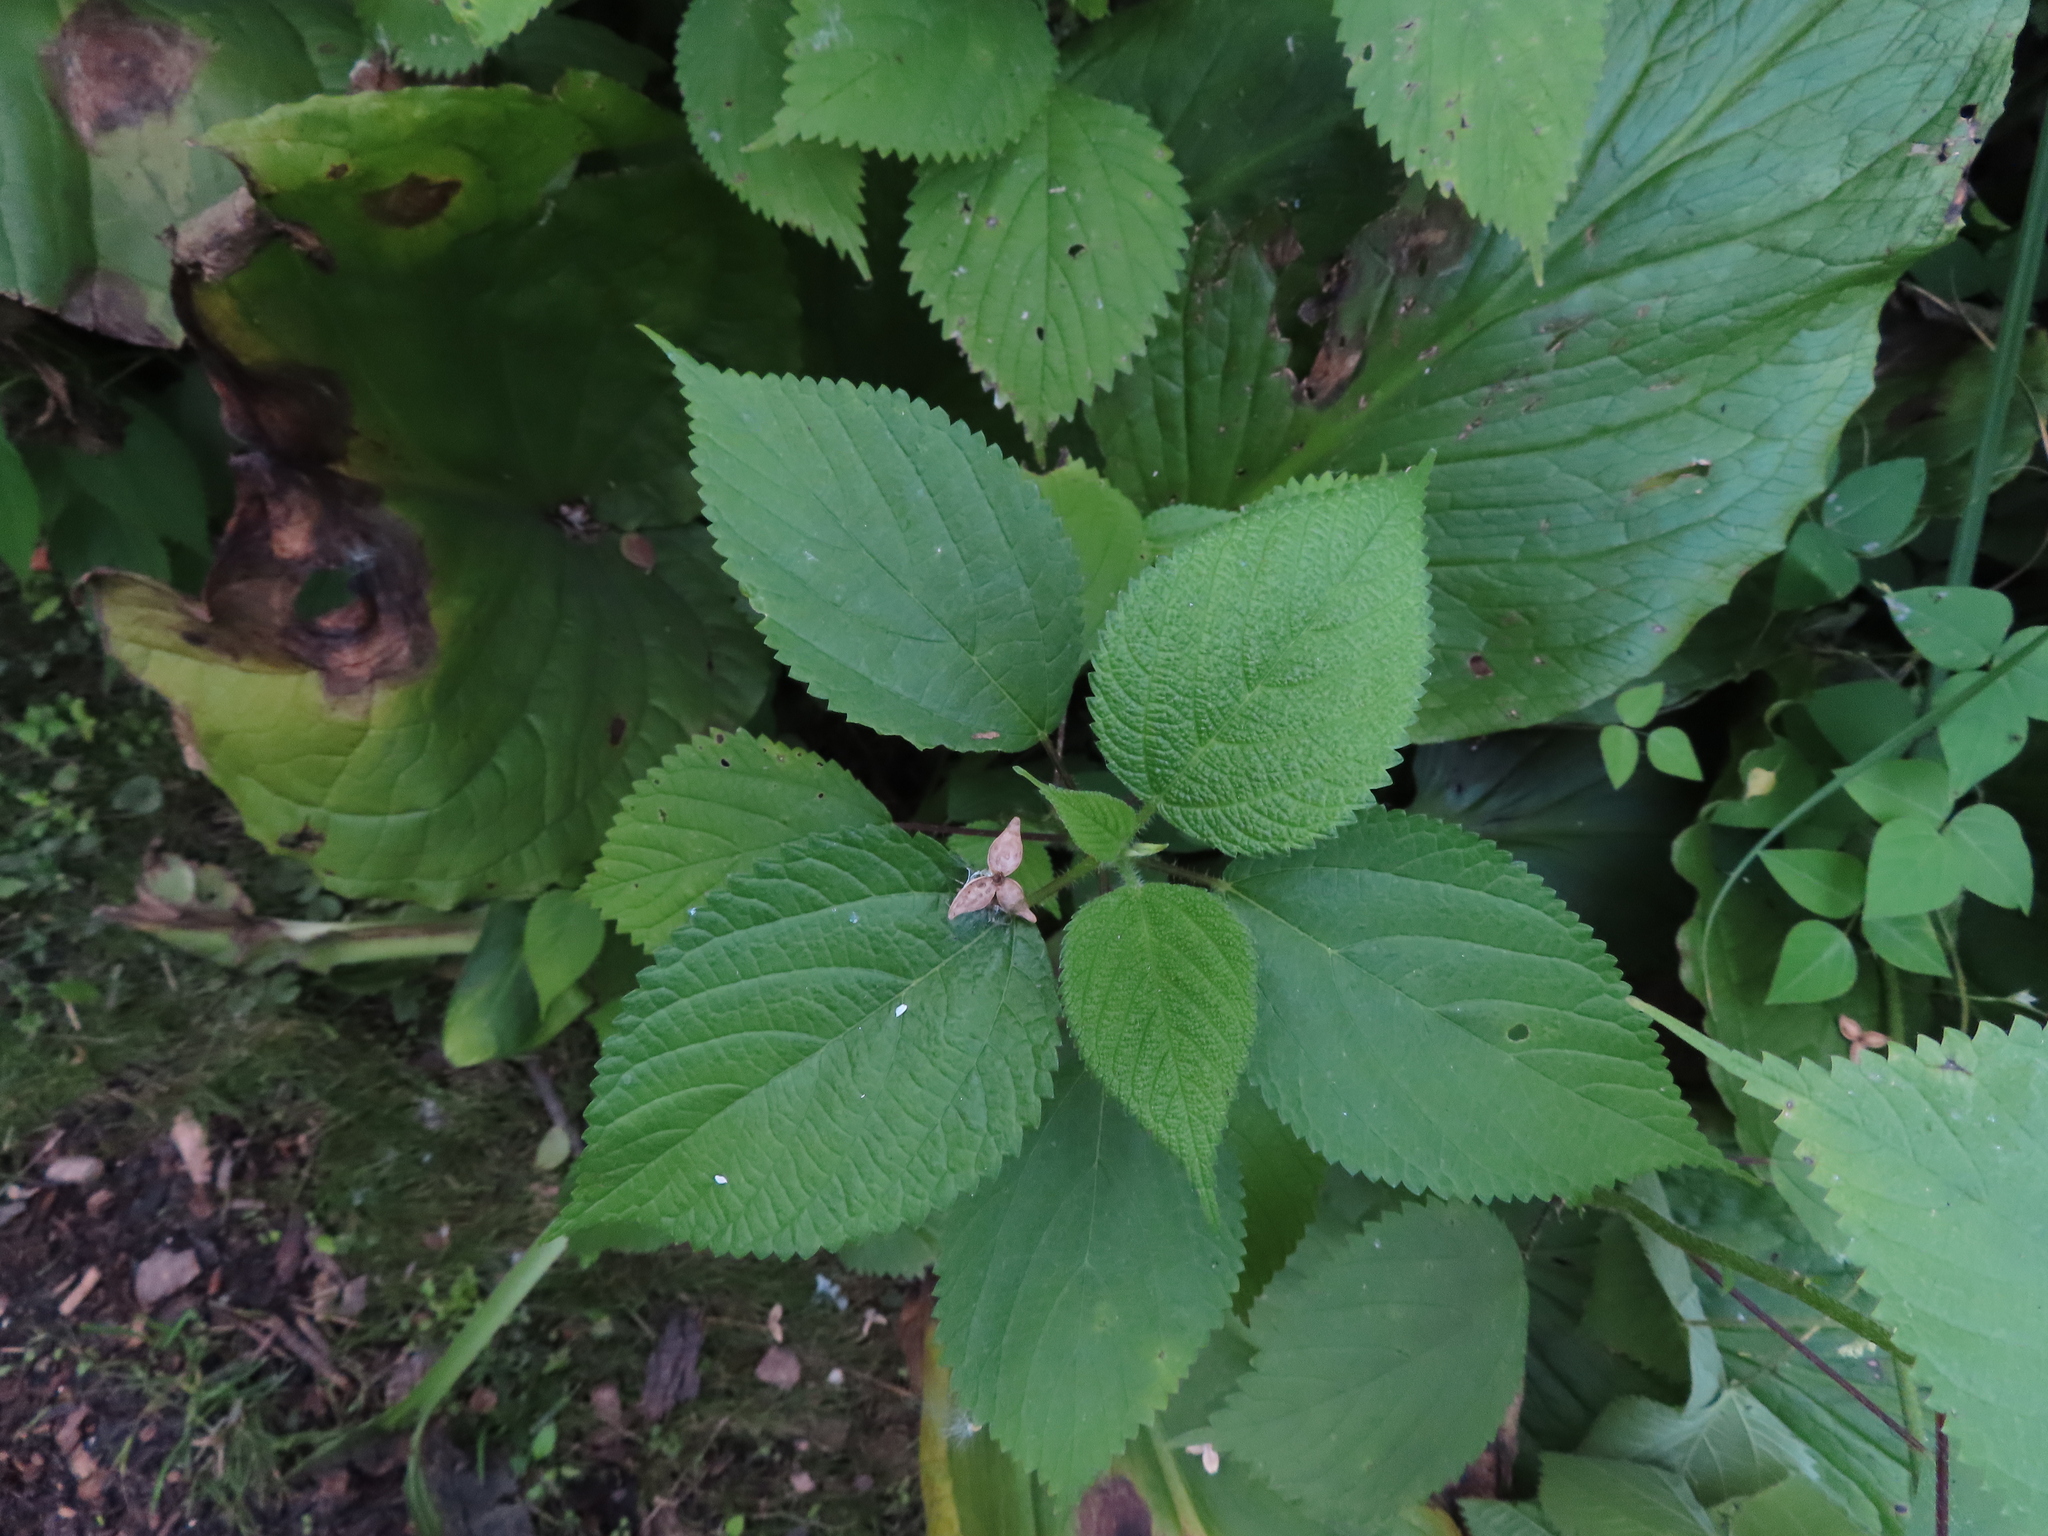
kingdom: Plantae
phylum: Tracheophyta
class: Magnoliopsida
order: Rosales
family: Urticaceae
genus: Laportea
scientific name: Laportea canadensis
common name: Canada nettle
